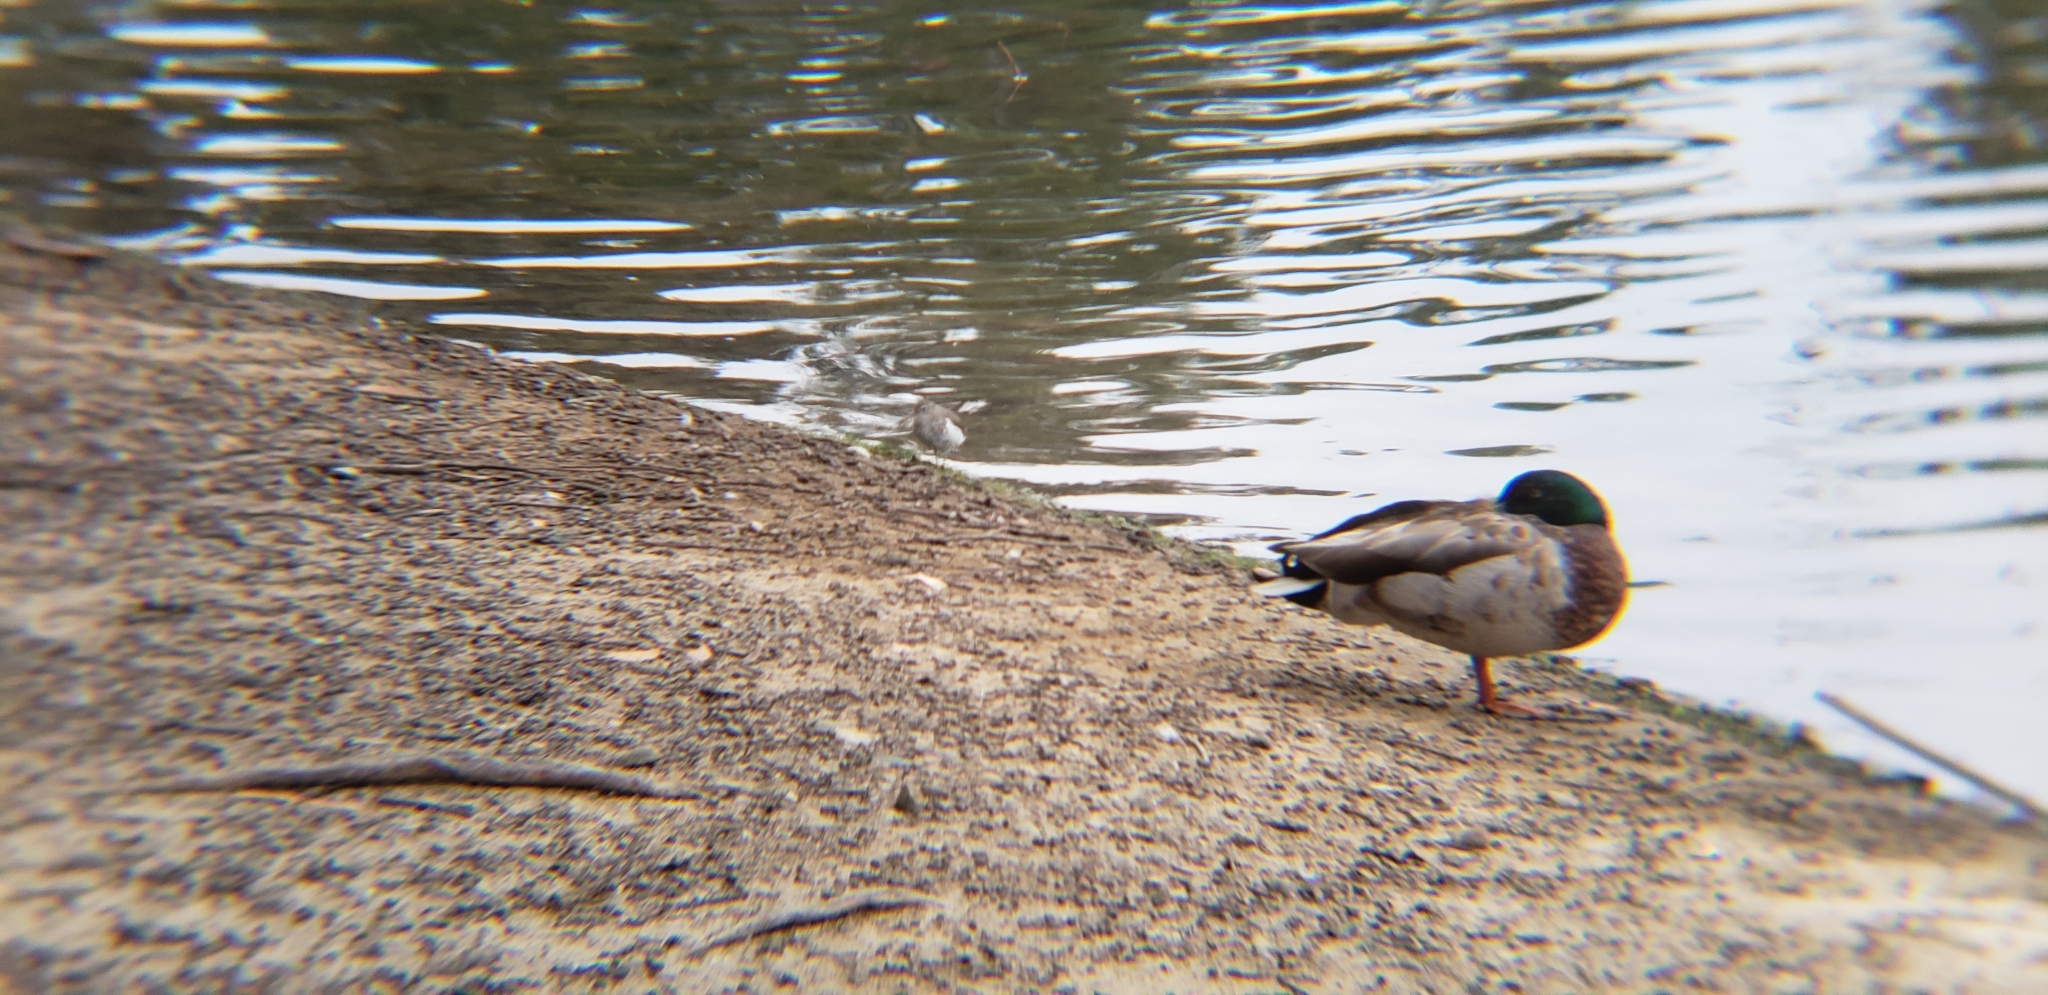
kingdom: Animalia
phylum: Chordata
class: Aves
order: Anseriformes
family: Anatidae
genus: Anas
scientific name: Anas platyrhynchos
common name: Mallard
